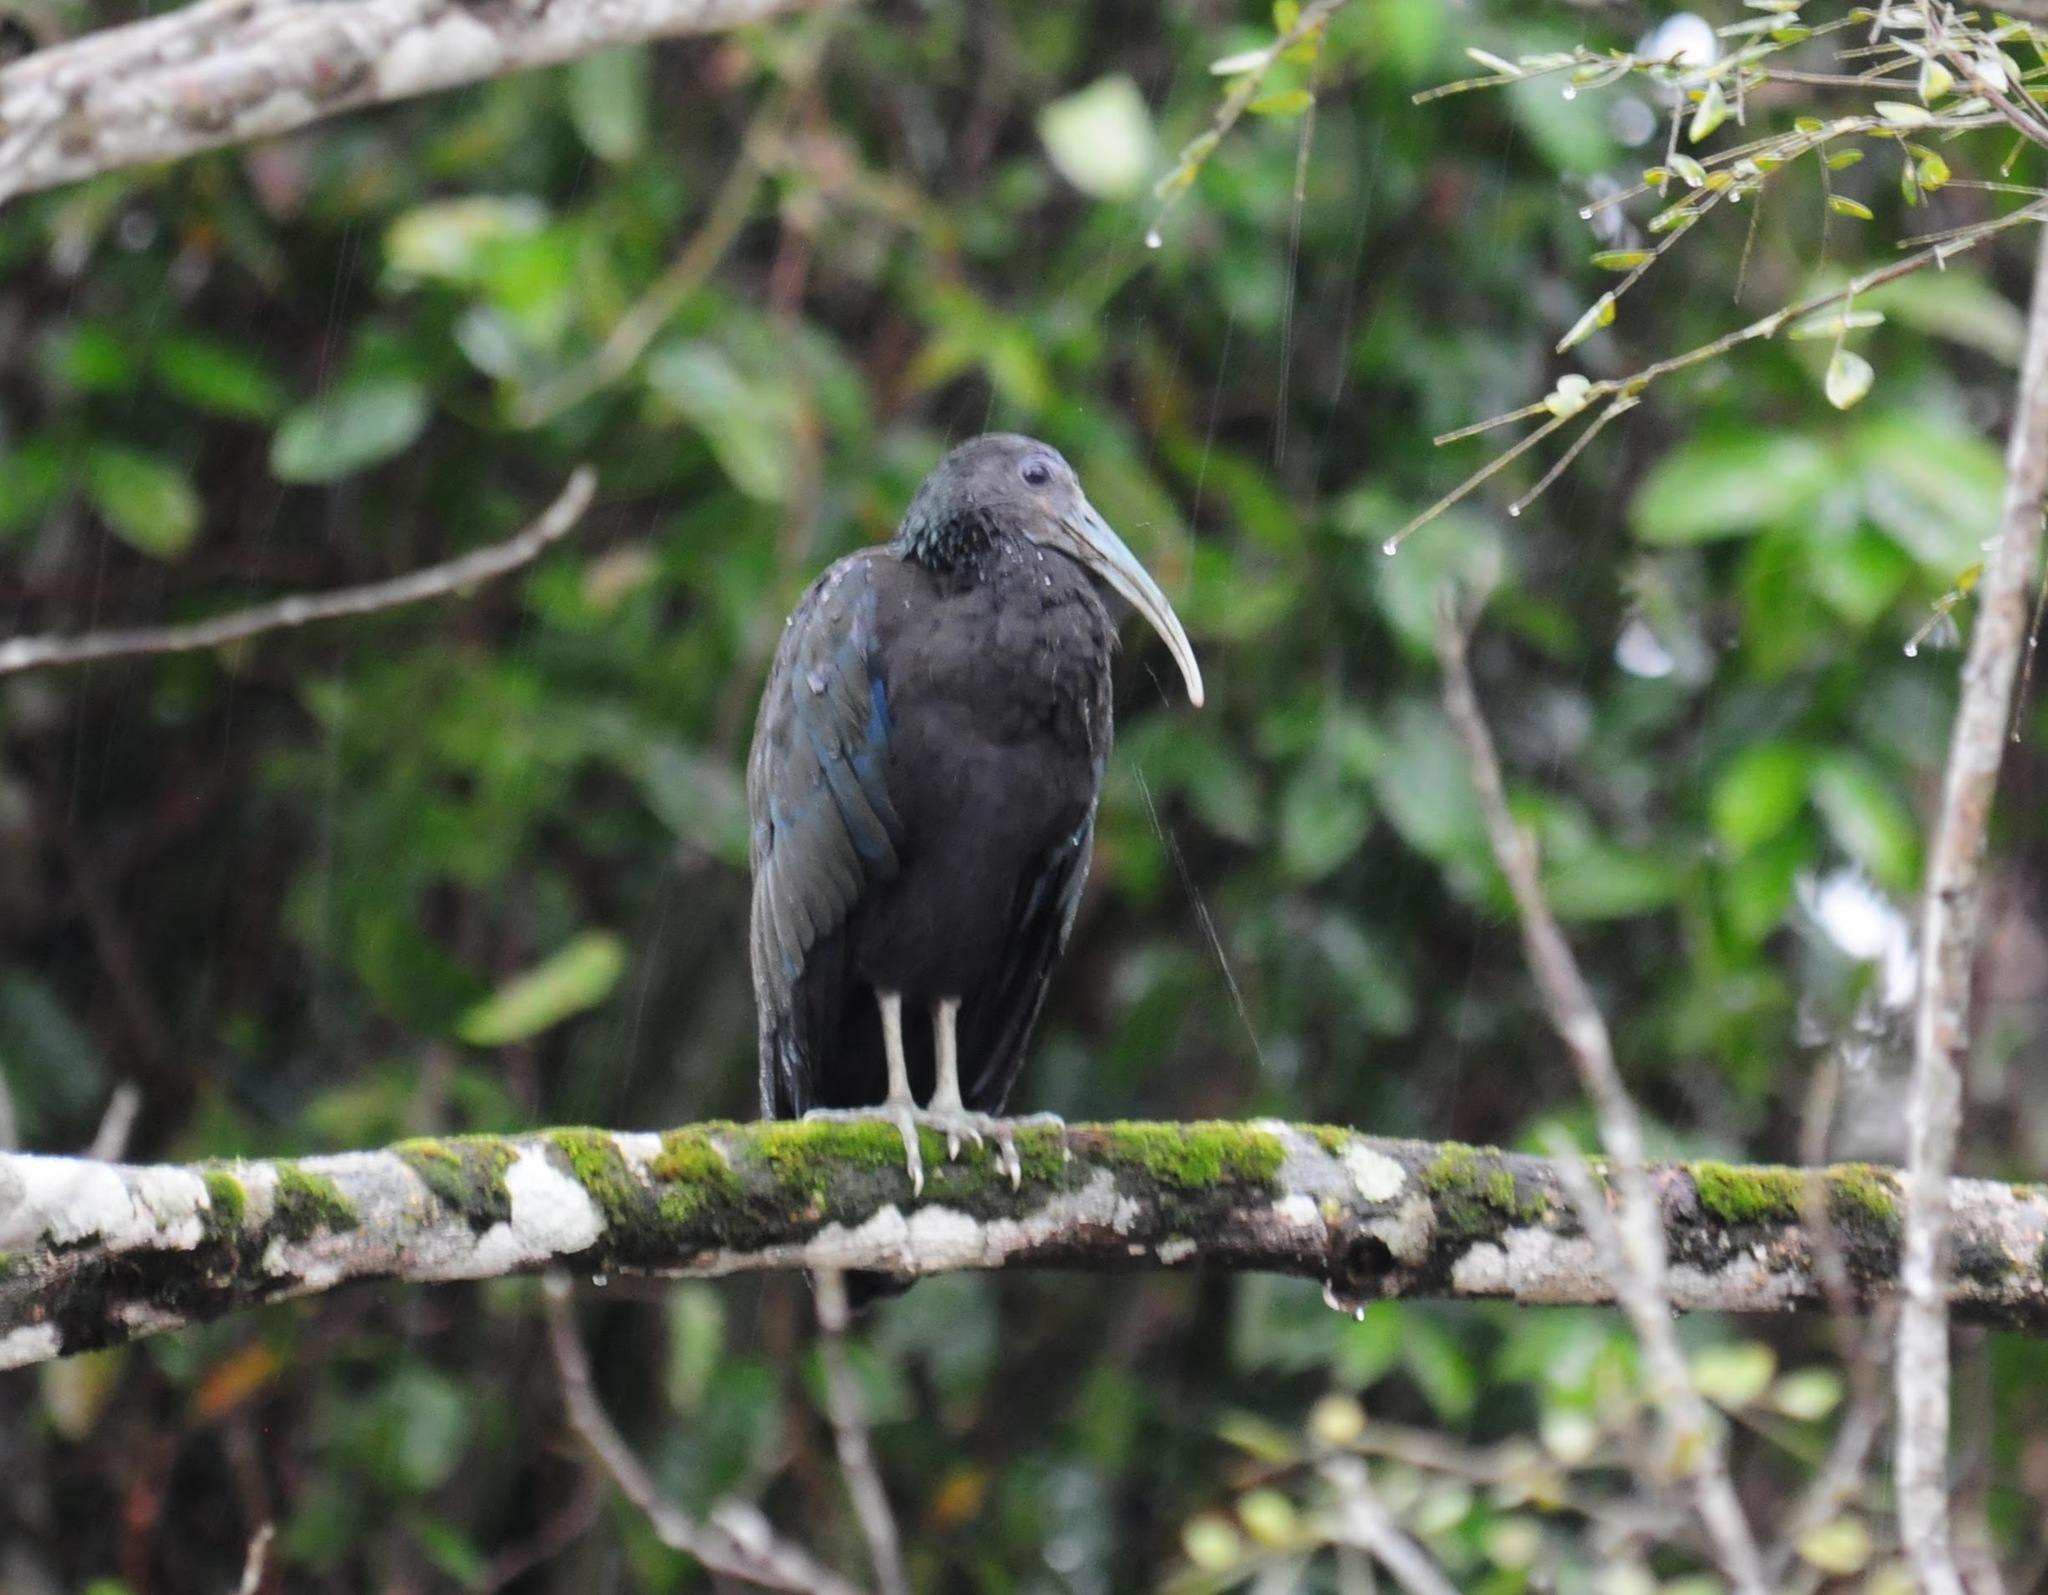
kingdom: Animalia
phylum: Chordata
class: Aves
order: Pelecaniformes
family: Threskiornithidae
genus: Mesembrinibis
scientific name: Mesembrinibis cayennensis
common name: Green ibis
